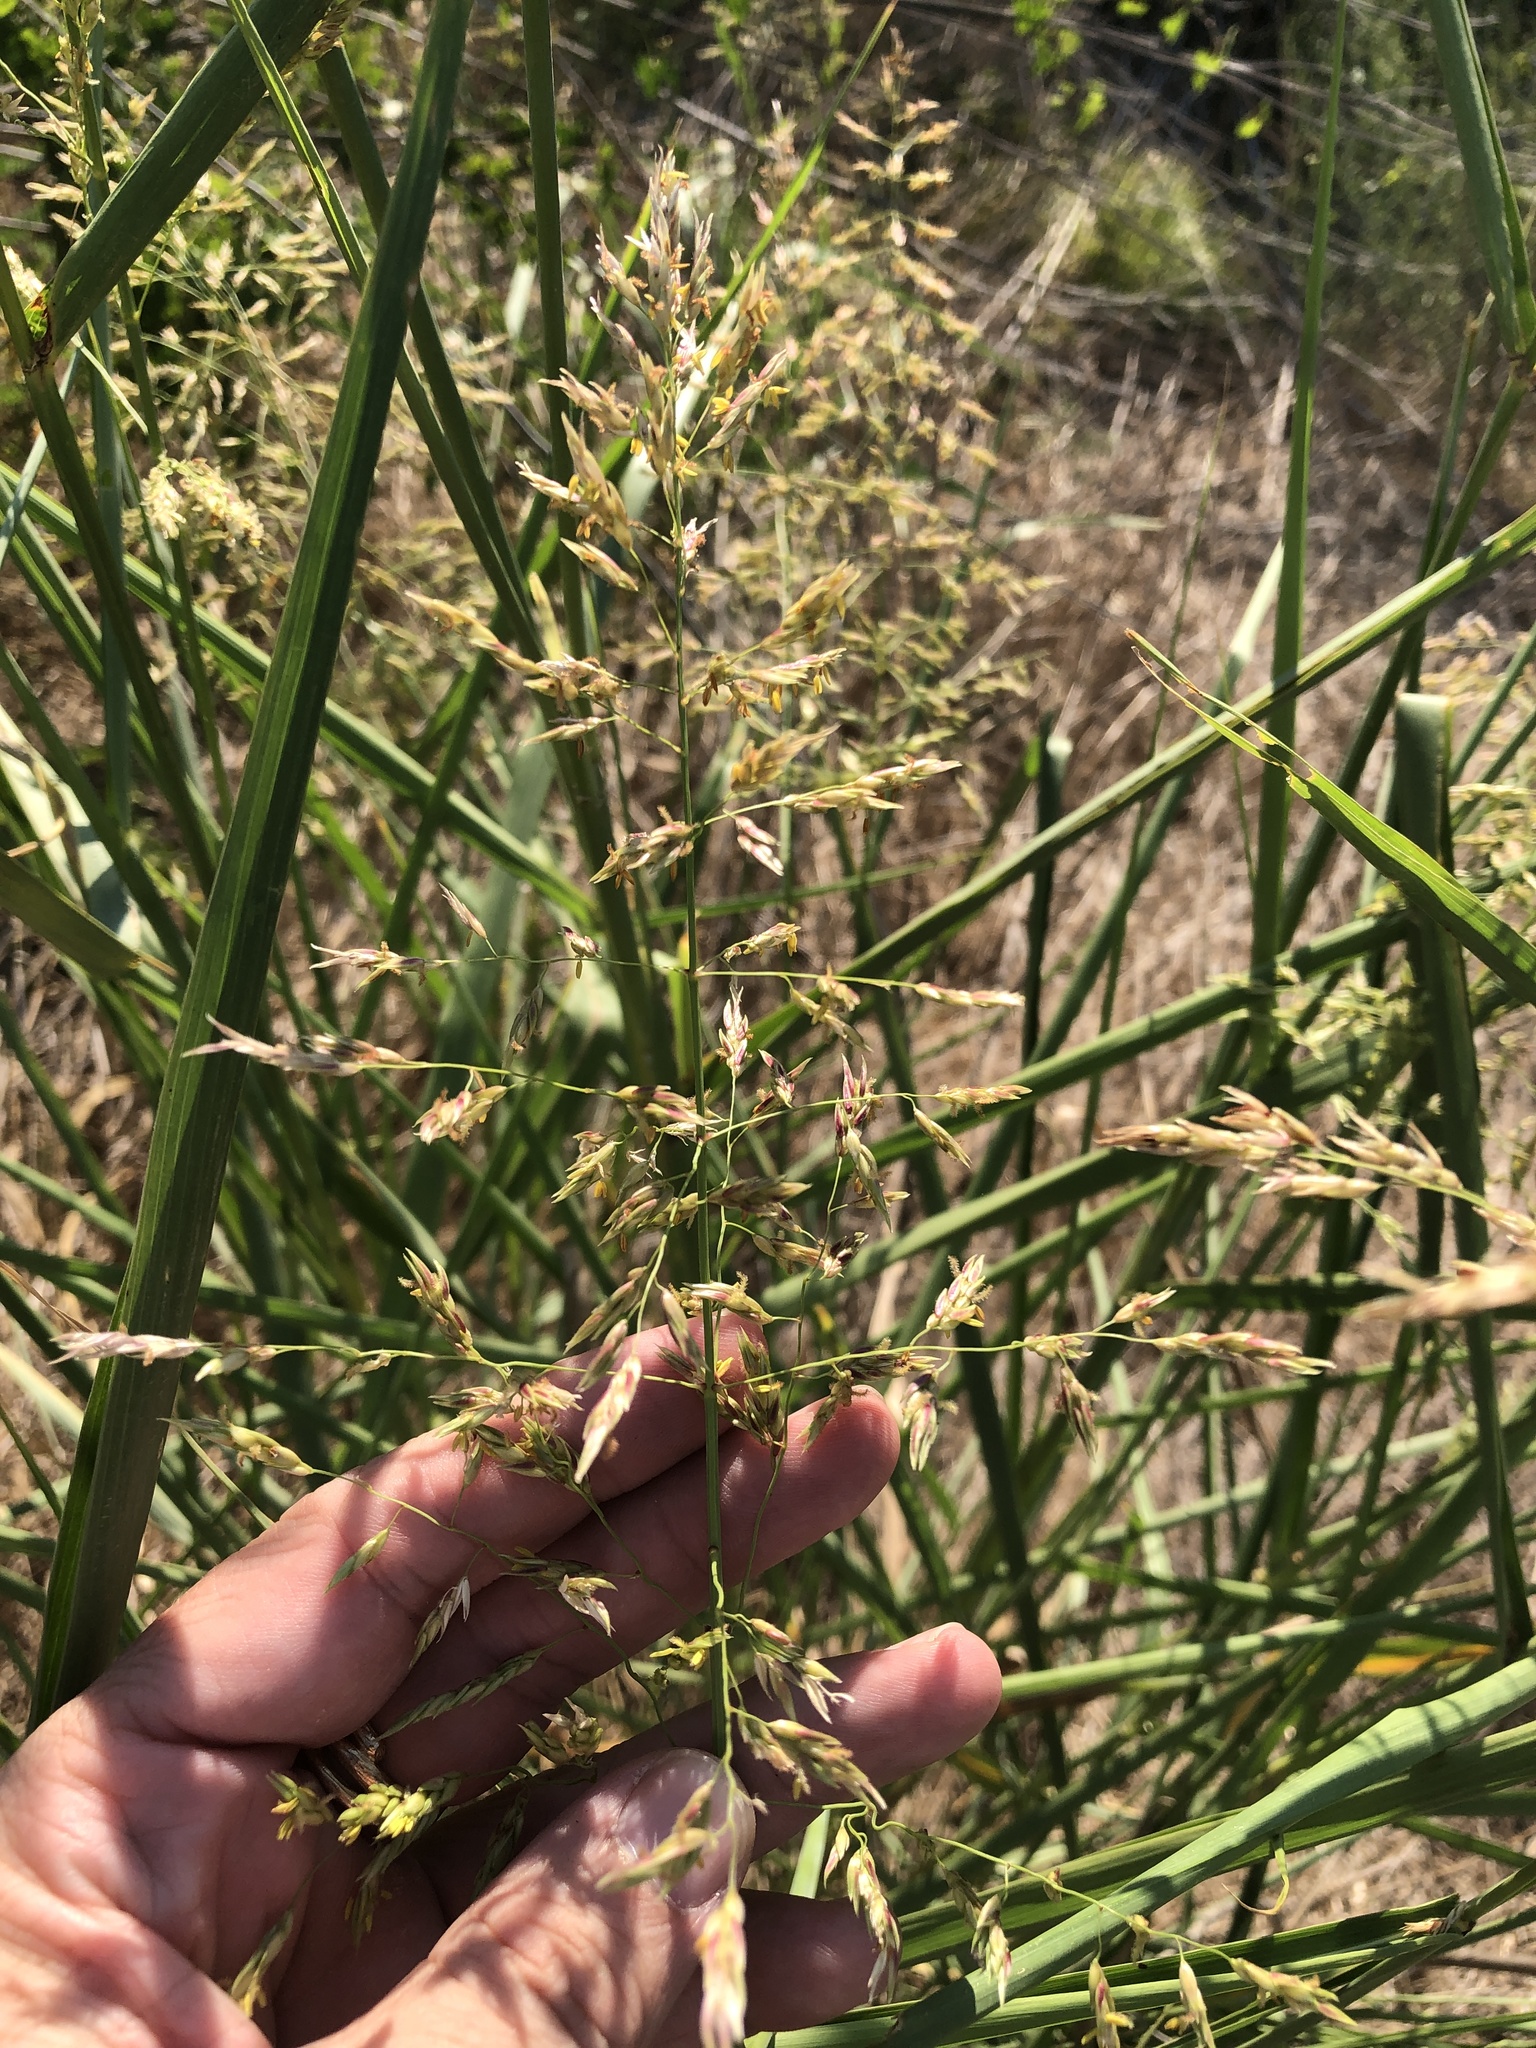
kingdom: Plantae
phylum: Tracheophyta
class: Liliopsida
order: Poales
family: Poaceae
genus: Sorghum
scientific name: Sorghum halepense
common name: Johnson-grass
